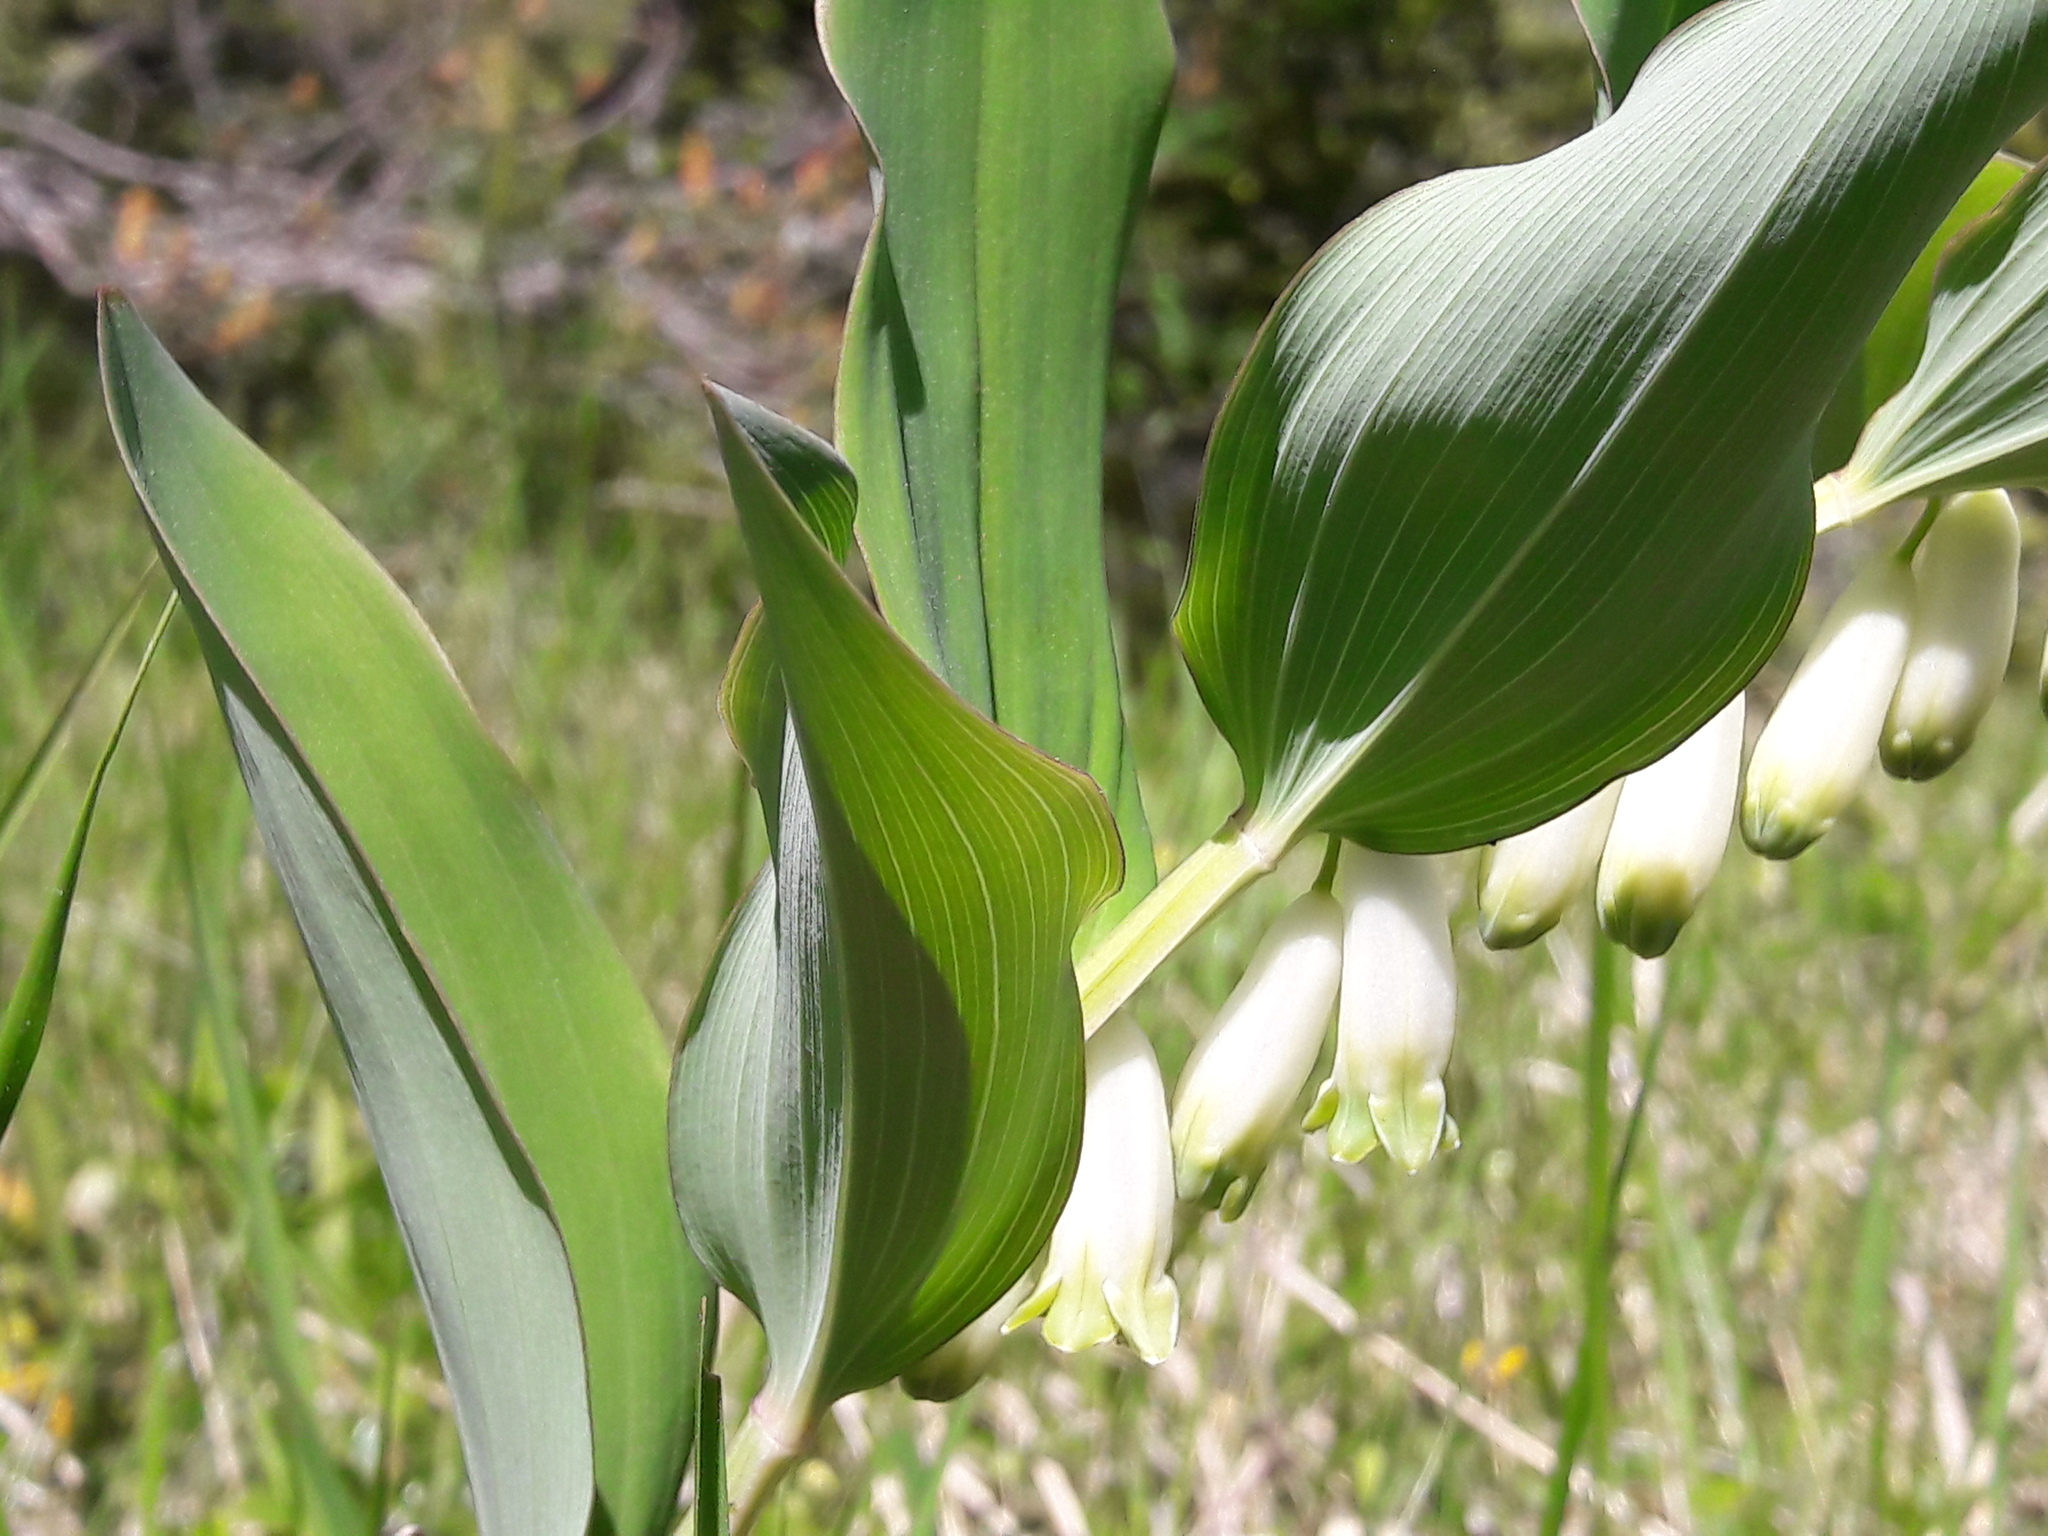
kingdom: Plantae
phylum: Tracheophyta
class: Liliopsida
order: Asparagales
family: Asparagaceae
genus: Polygonatum
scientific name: Polygonatum odoratum
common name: Angular solomon's-seal
